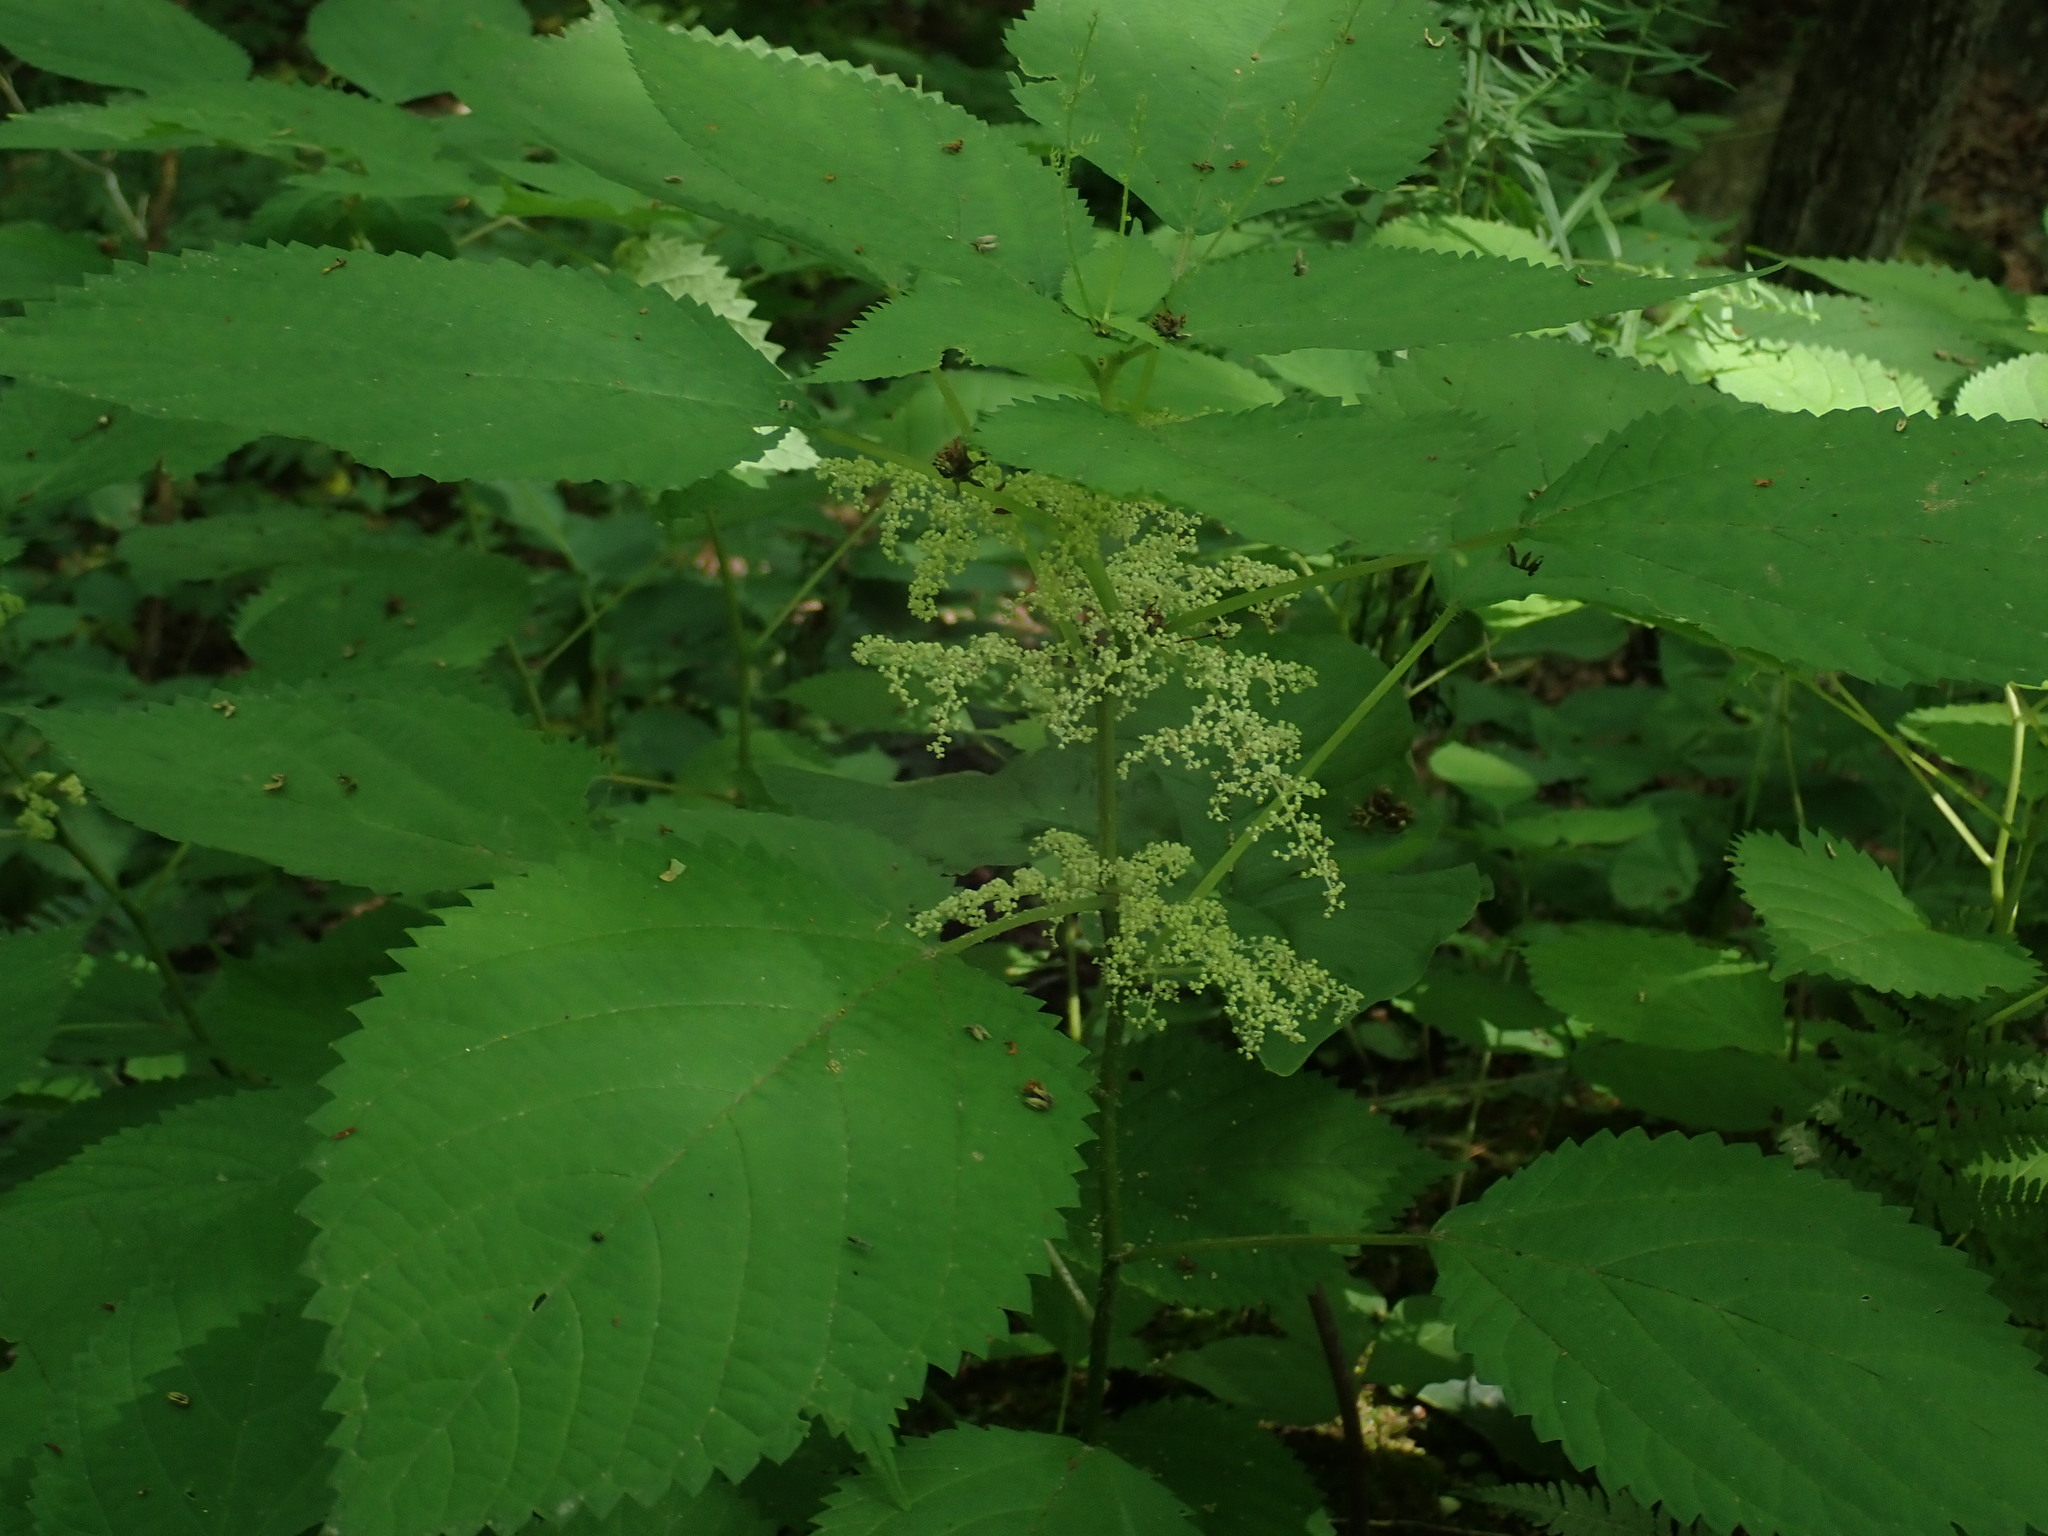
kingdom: Plantae
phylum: Tracheophyta
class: Magnoliopsida
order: Rosales
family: Urticaceae
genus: Laportea
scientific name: Laportea canadensis
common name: Canada nettle
